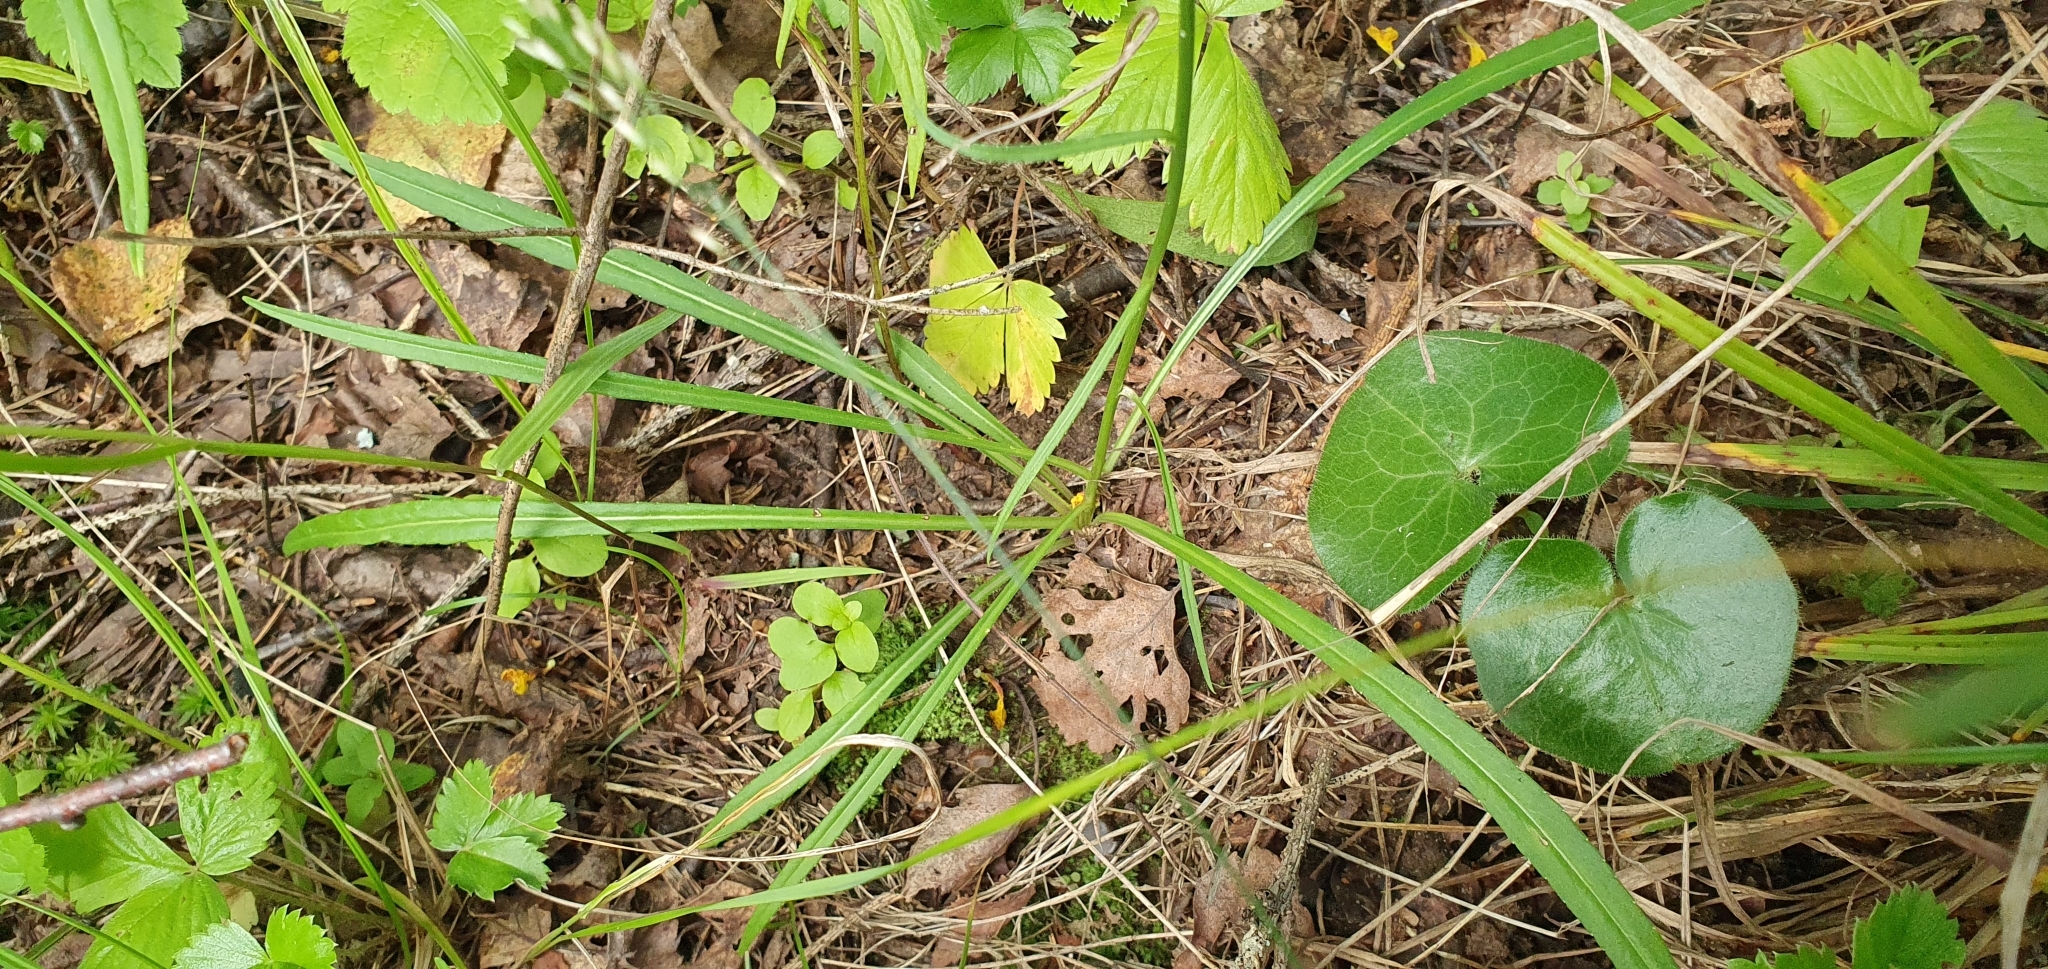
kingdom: Plantae
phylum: Tracheophyta
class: Magnoliopsida
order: Asterales
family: Campanulaceae
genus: Campanula
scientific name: Campanula persicifolia
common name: Peach-leaved bellflower
